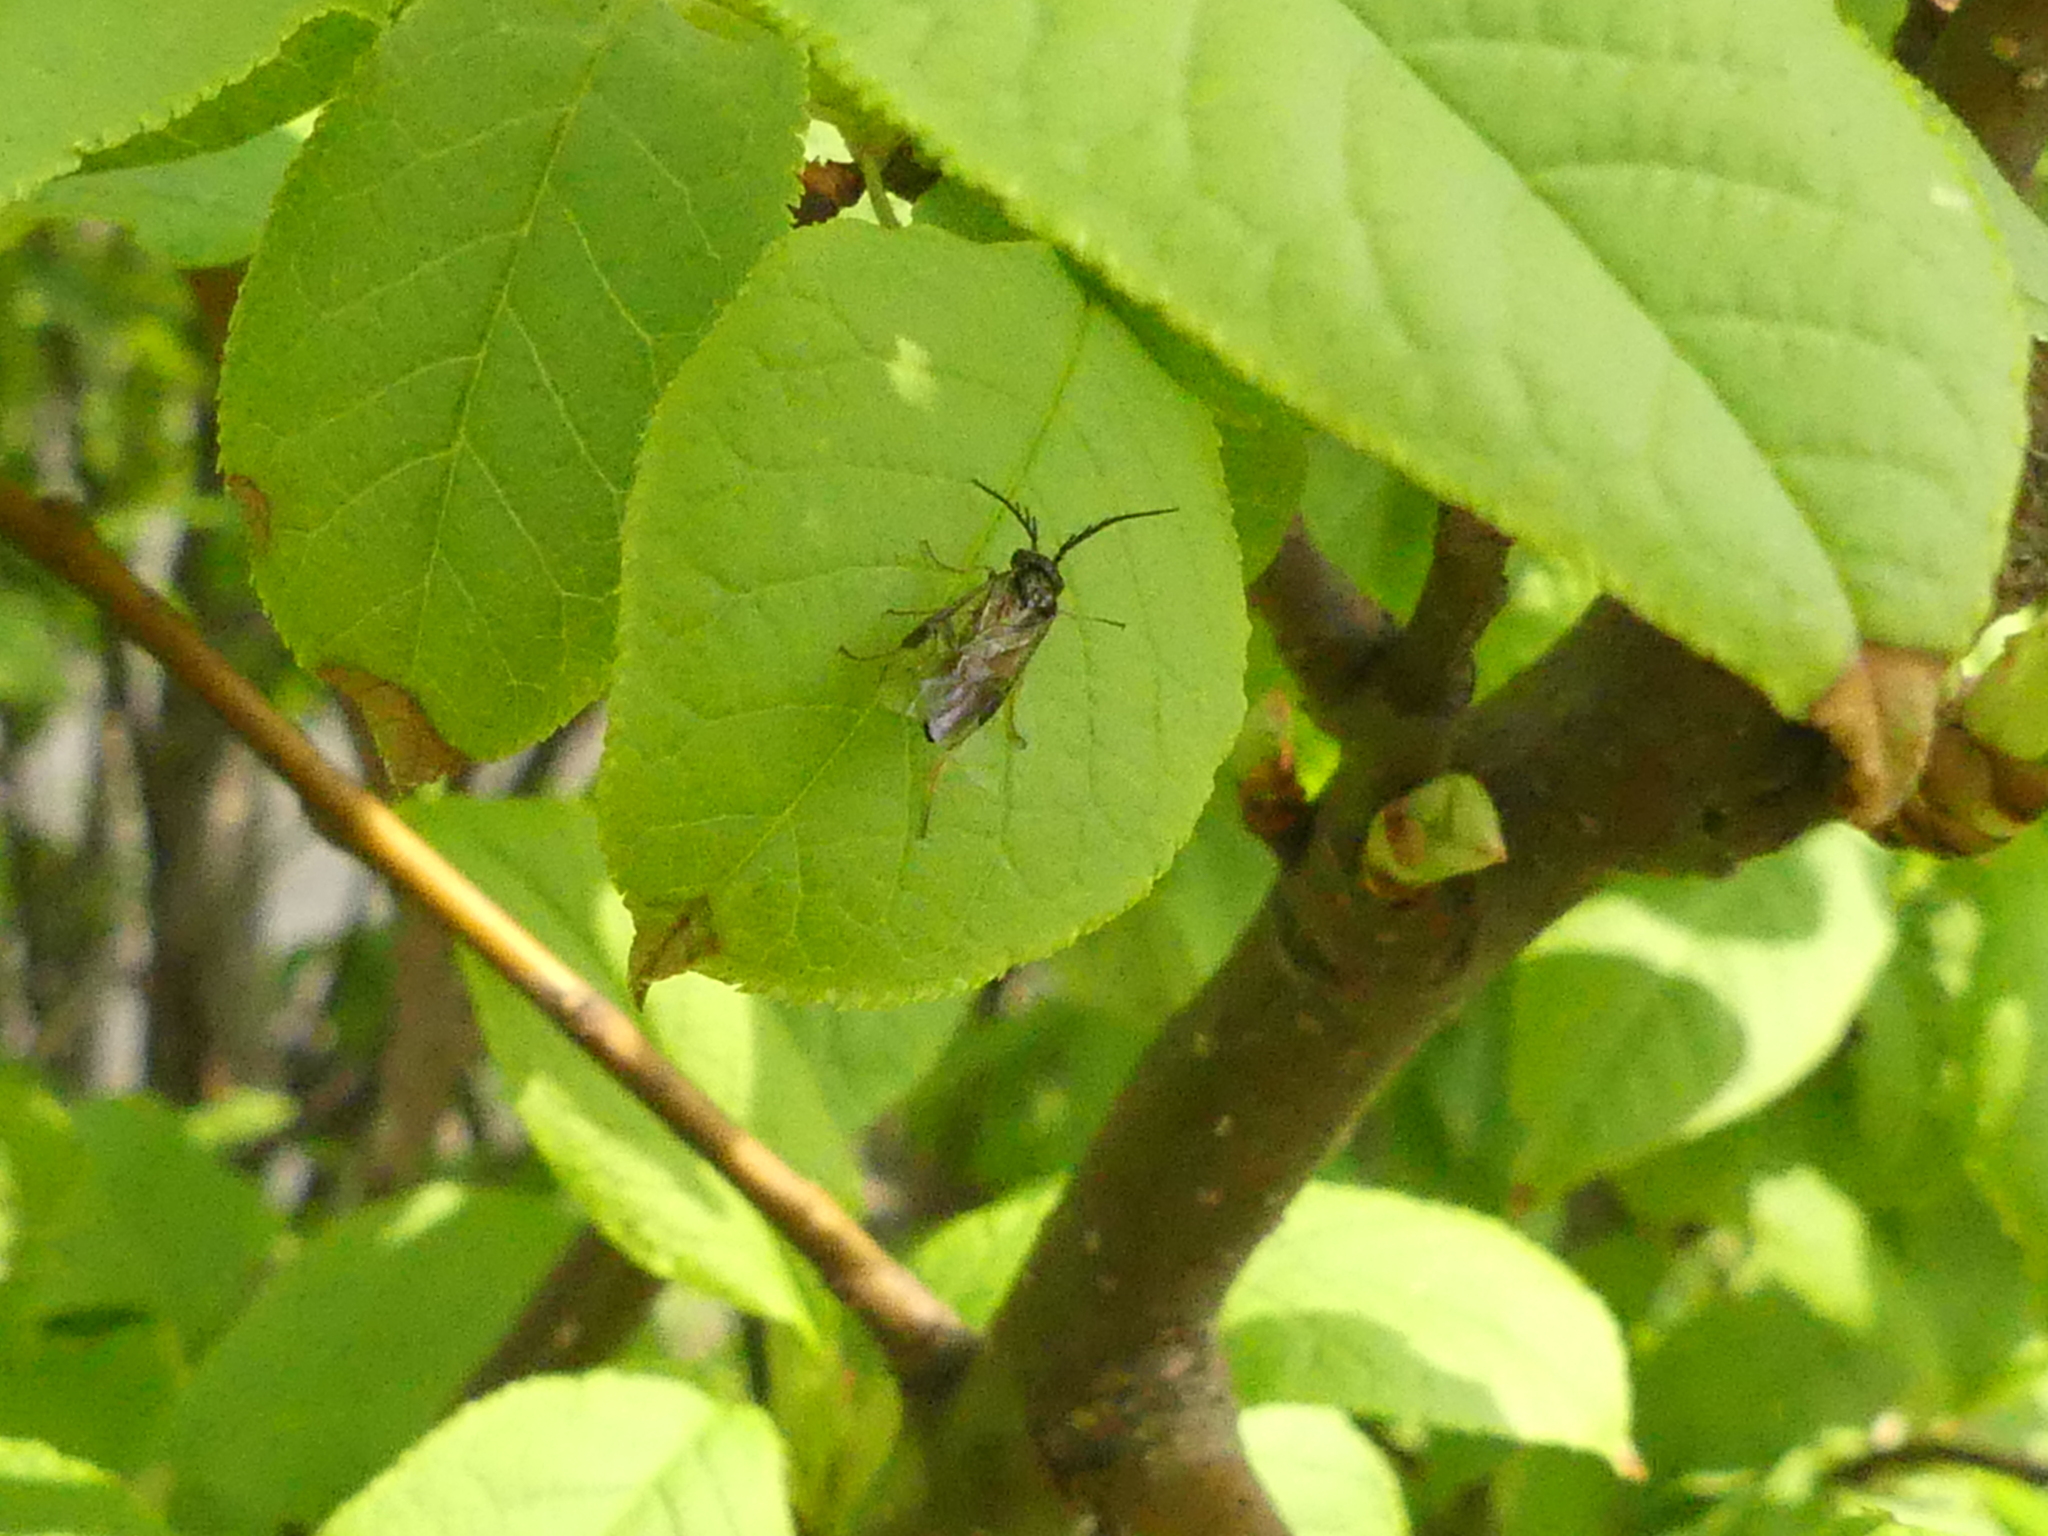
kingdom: Animalia
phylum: Arthropoda
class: Insecta
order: Hymenoptera
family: Tenthredinidae
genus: Cladius
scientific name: Cladius pectinicornis
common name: Sawfly
